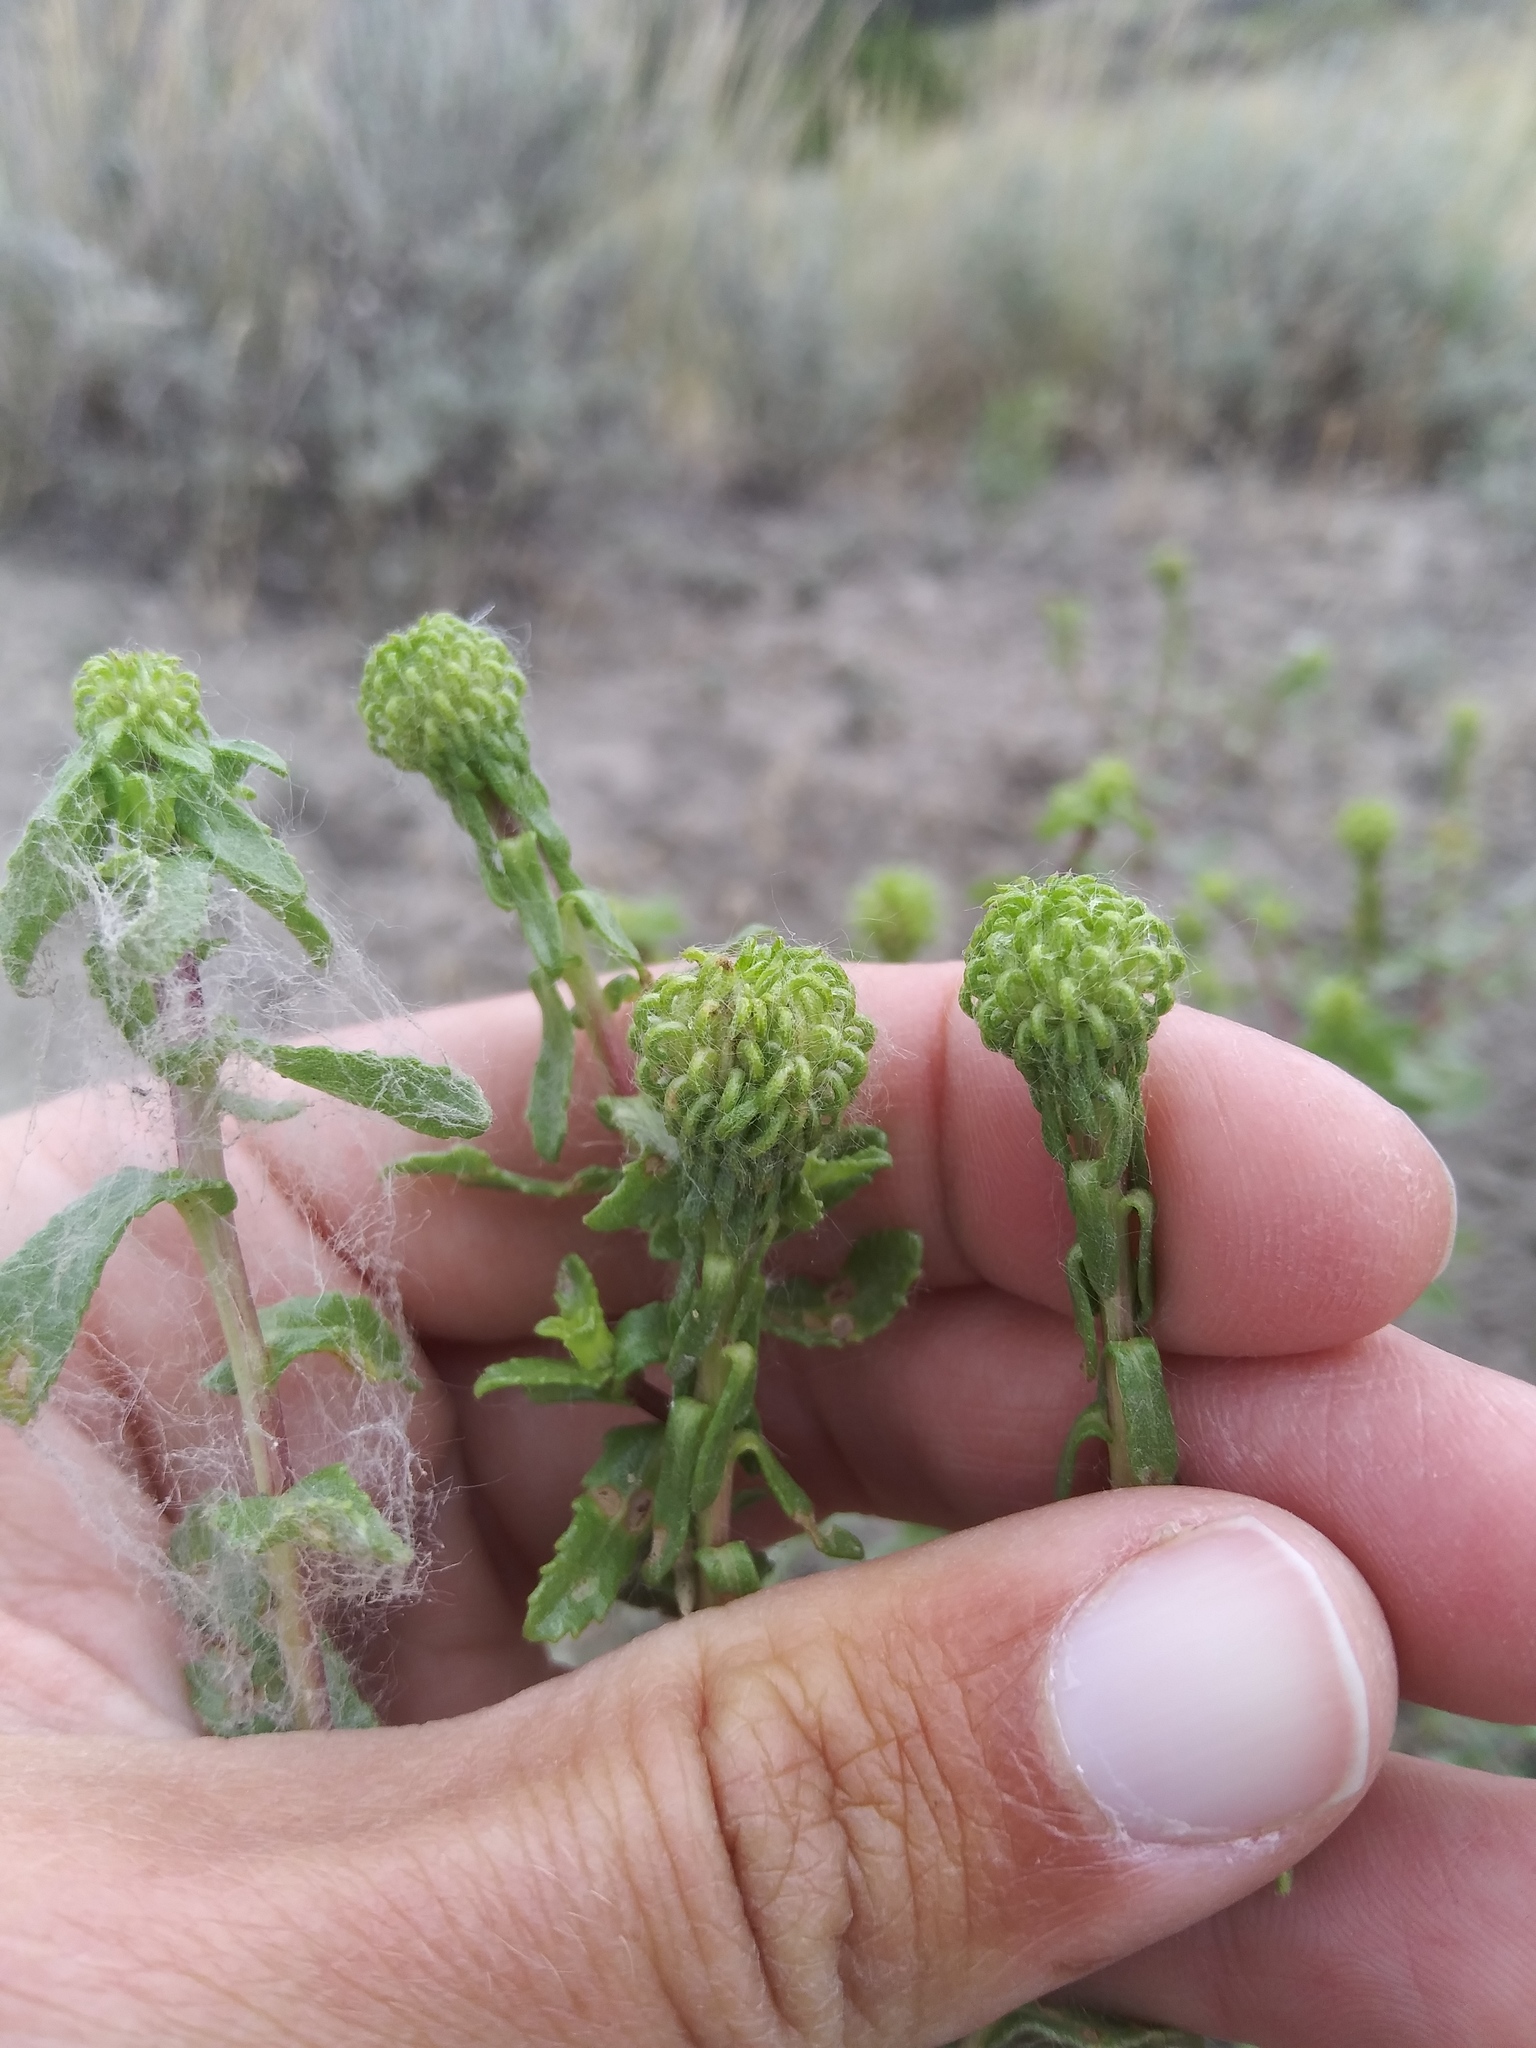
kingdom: Plantae
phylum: Tracheophyta
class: Magnoliopsida
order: Asterales
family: Asteraceae
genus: Grindelia
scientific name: Grindelia squarrosa
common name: Curly-cup gumweed
